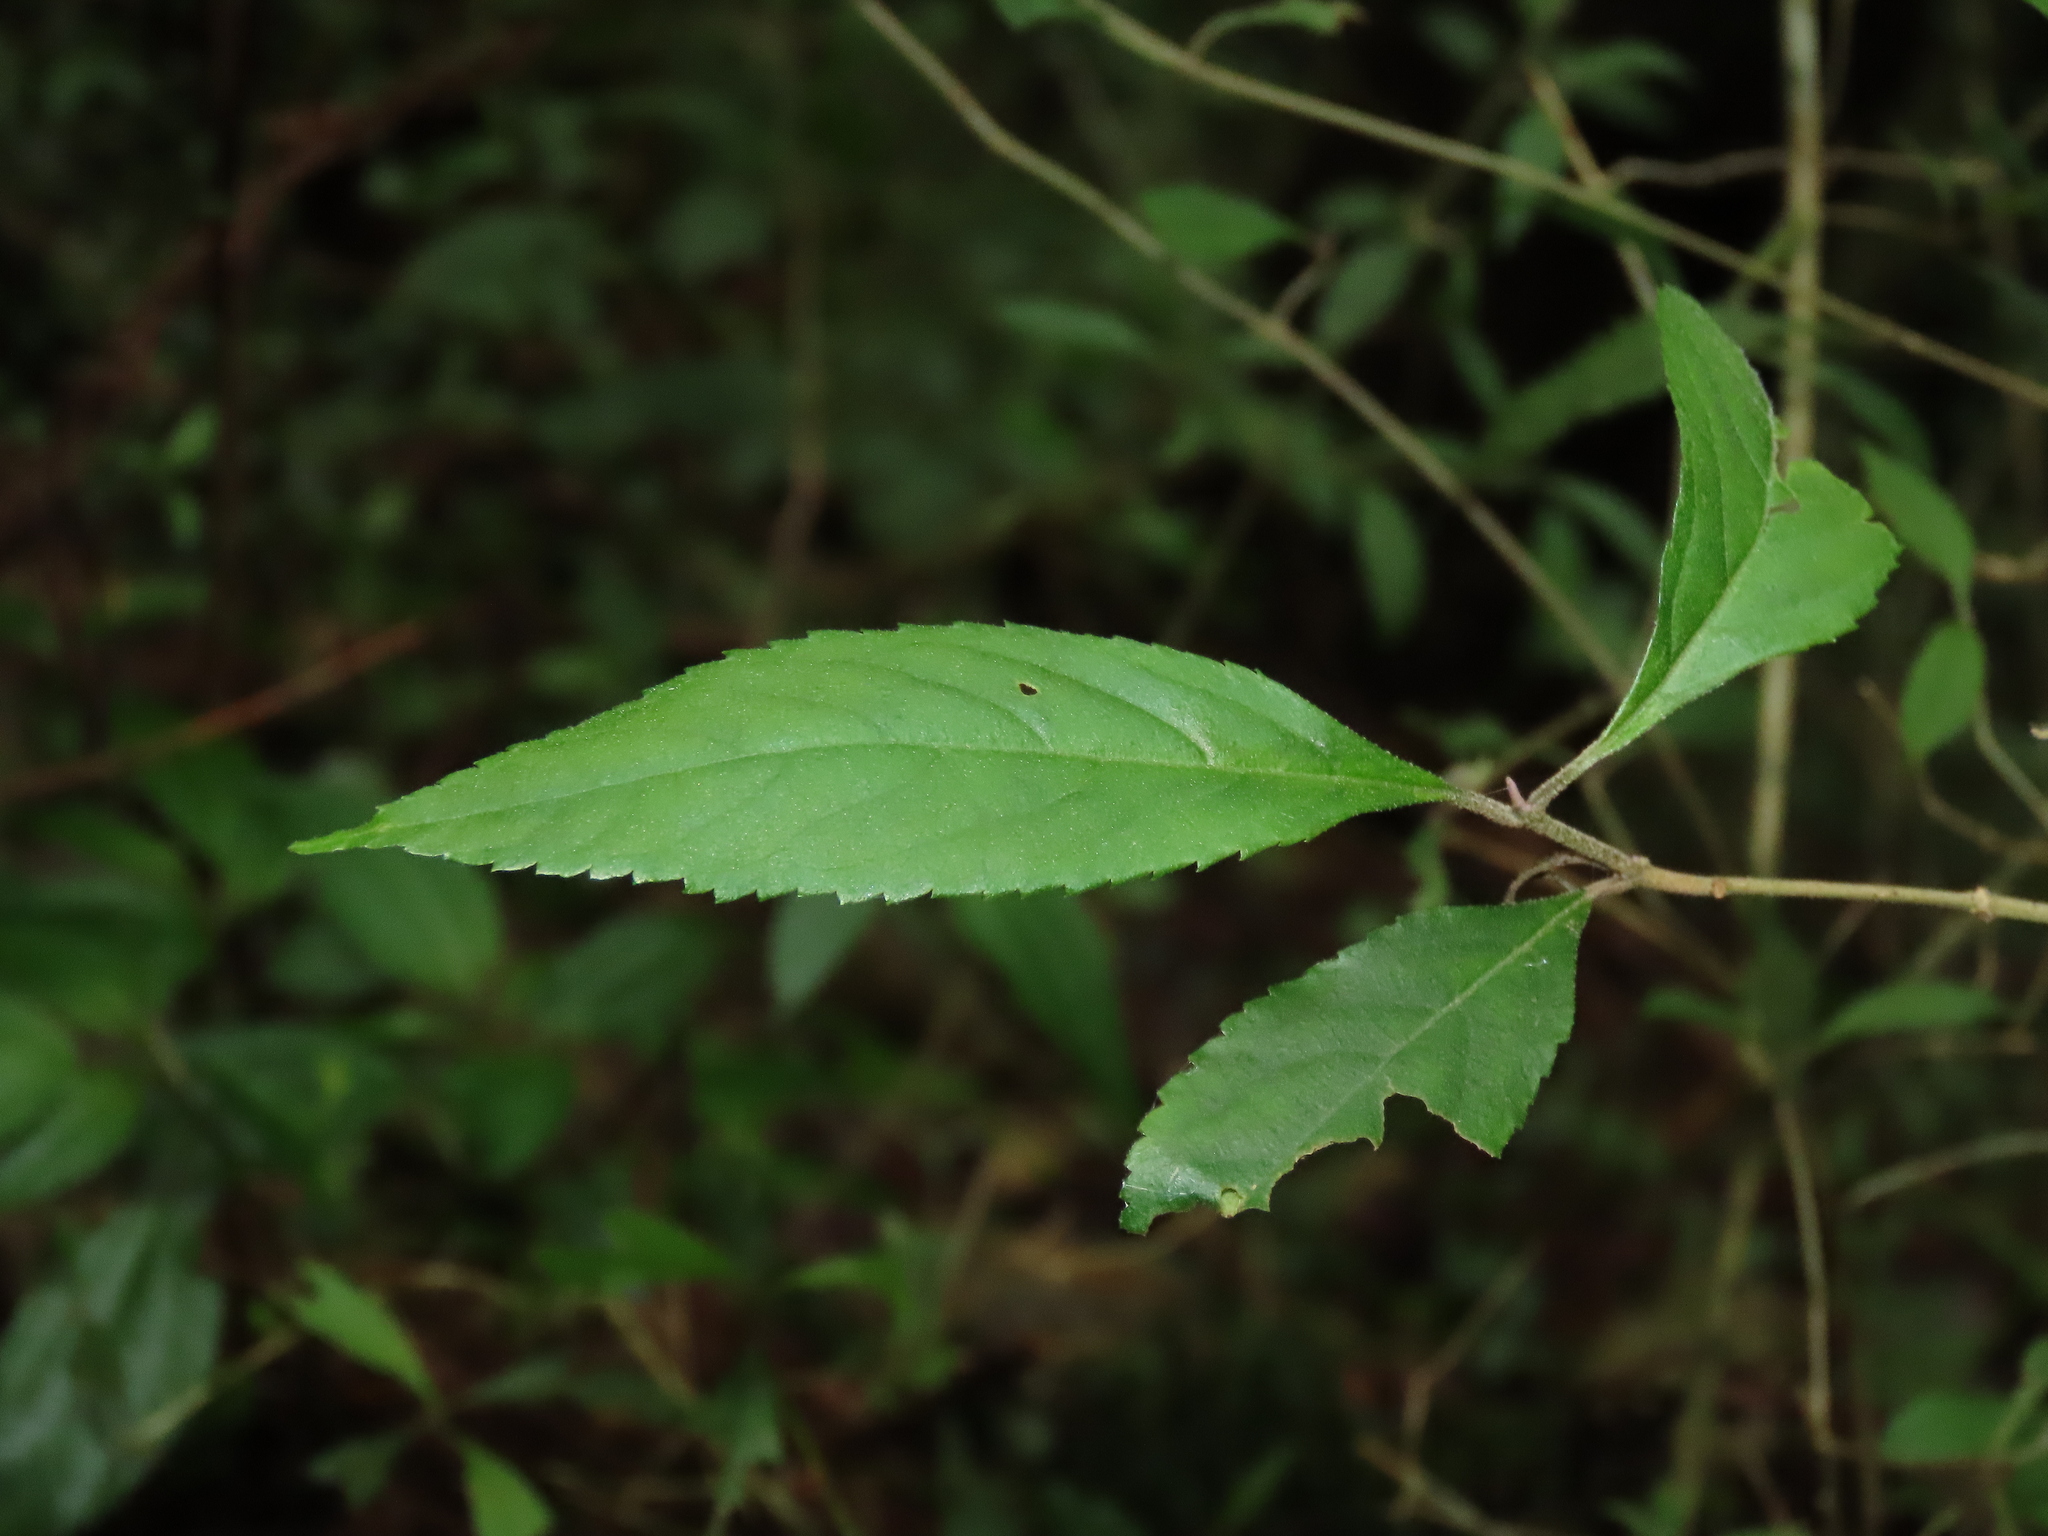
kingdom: Plantae
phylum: Tracheophyta
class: Magnoliopsida
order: Lamiales
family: Lamiaceae
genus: Callicarpa
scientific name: Callicarpa randaiensis
